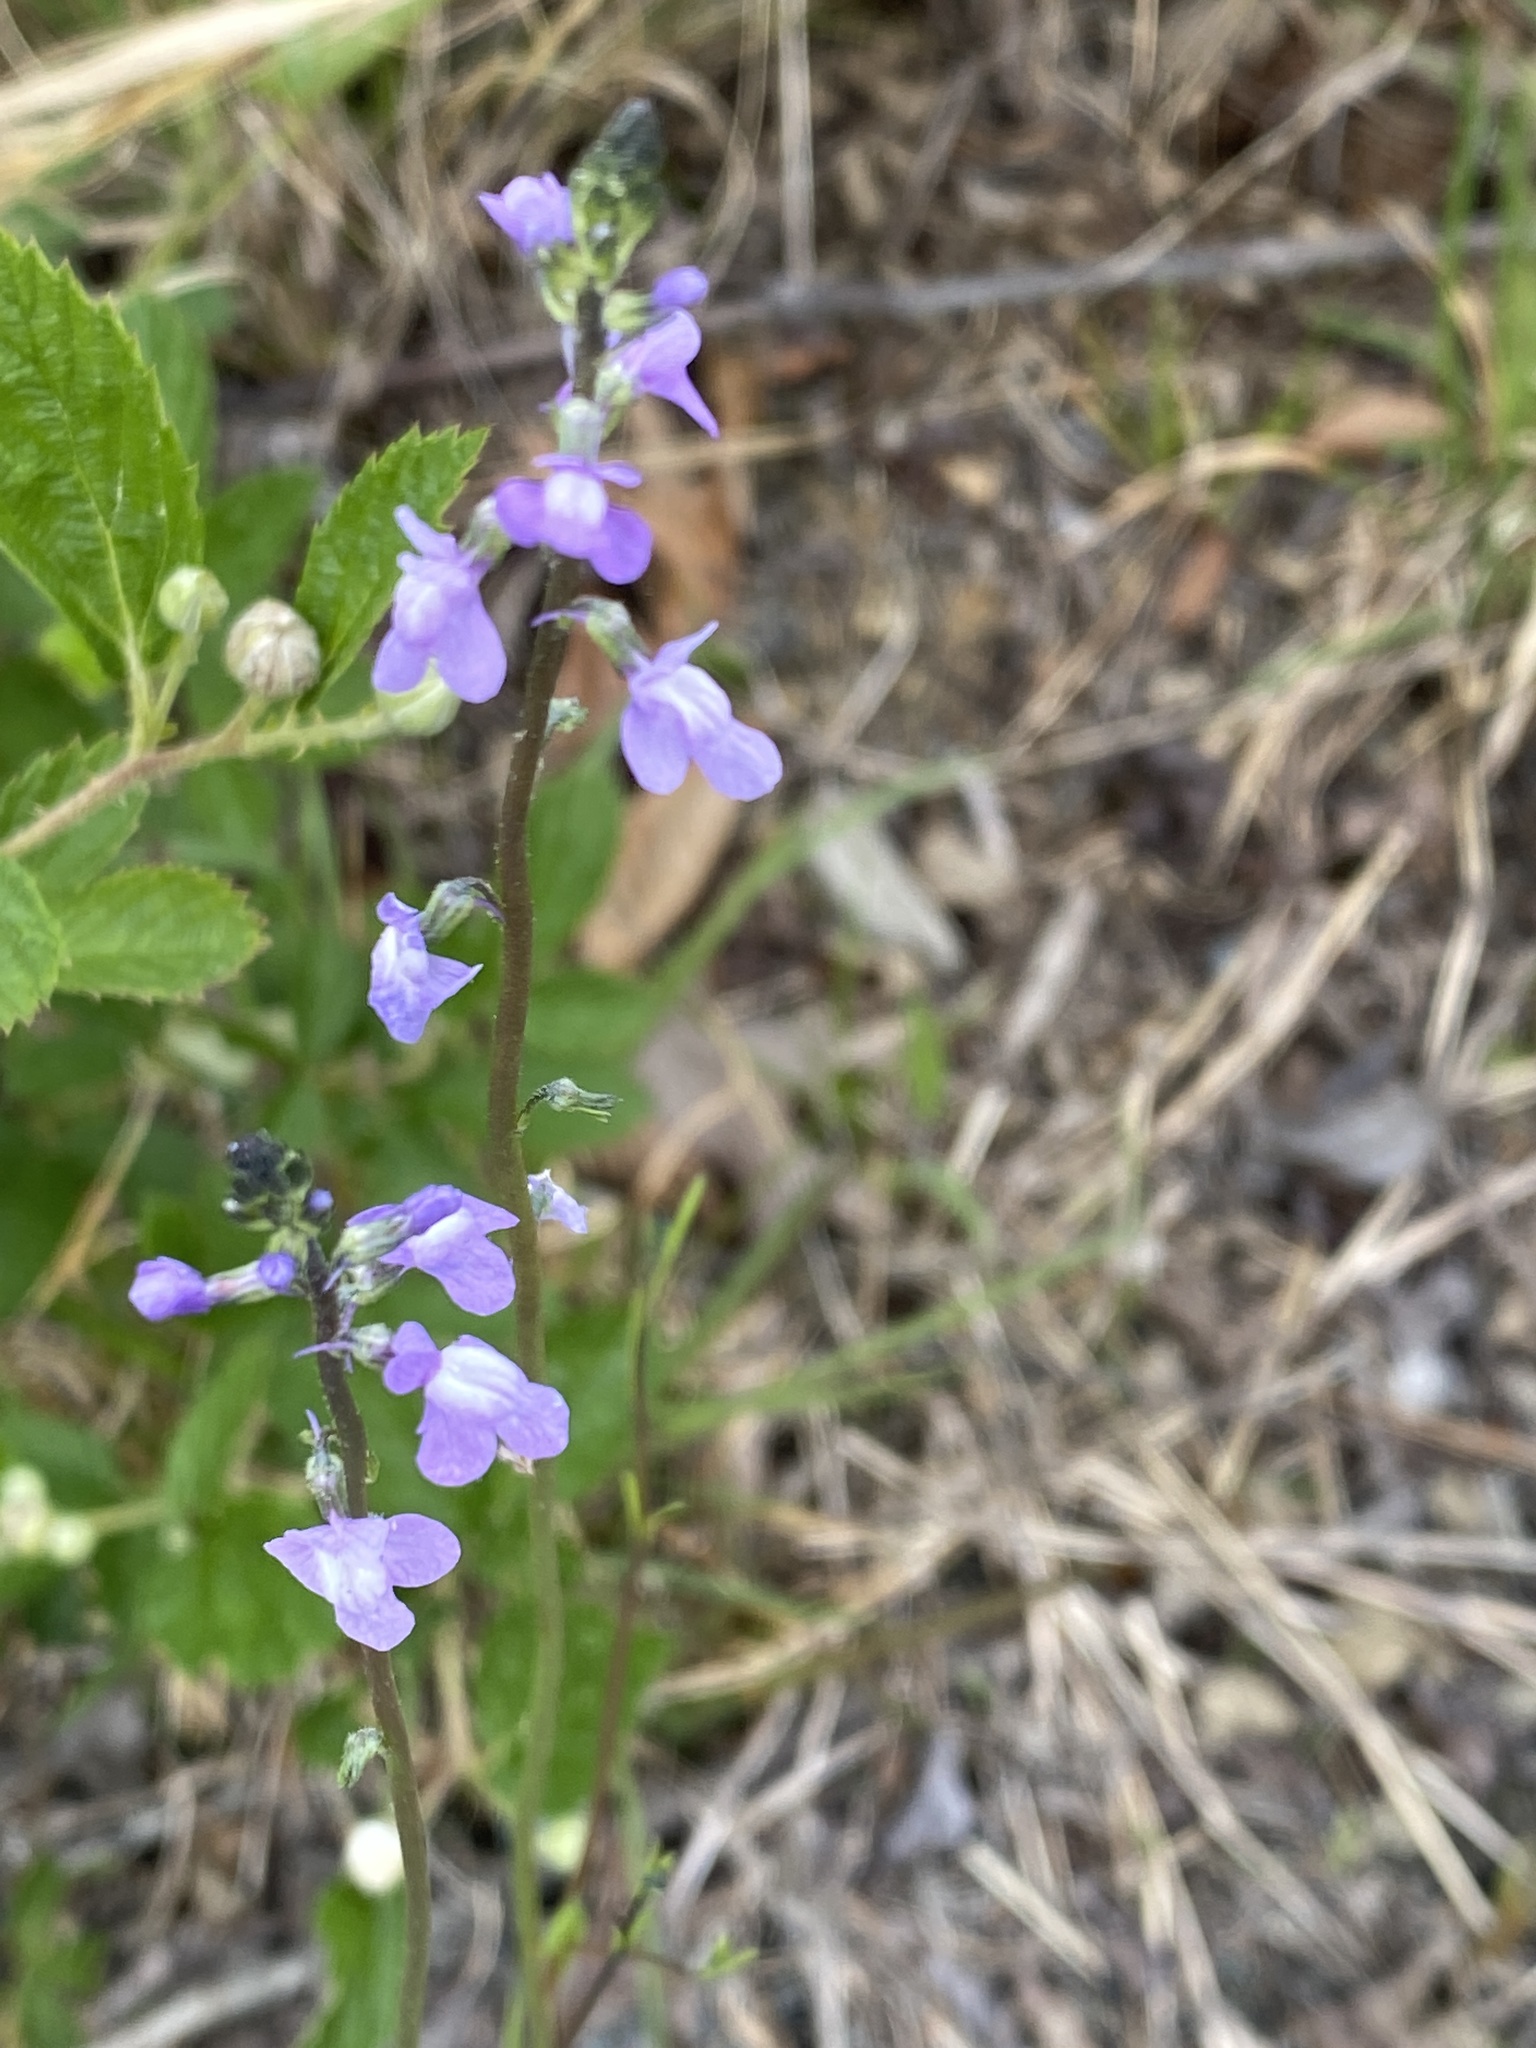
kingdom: Plantae
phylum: Tracheophyta
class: Magnoliopsida
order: Lamiales
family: Plantaginaceae
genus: Nuttallanthus
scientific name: Nuttallanthus canadensis
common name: Blue toadflax
